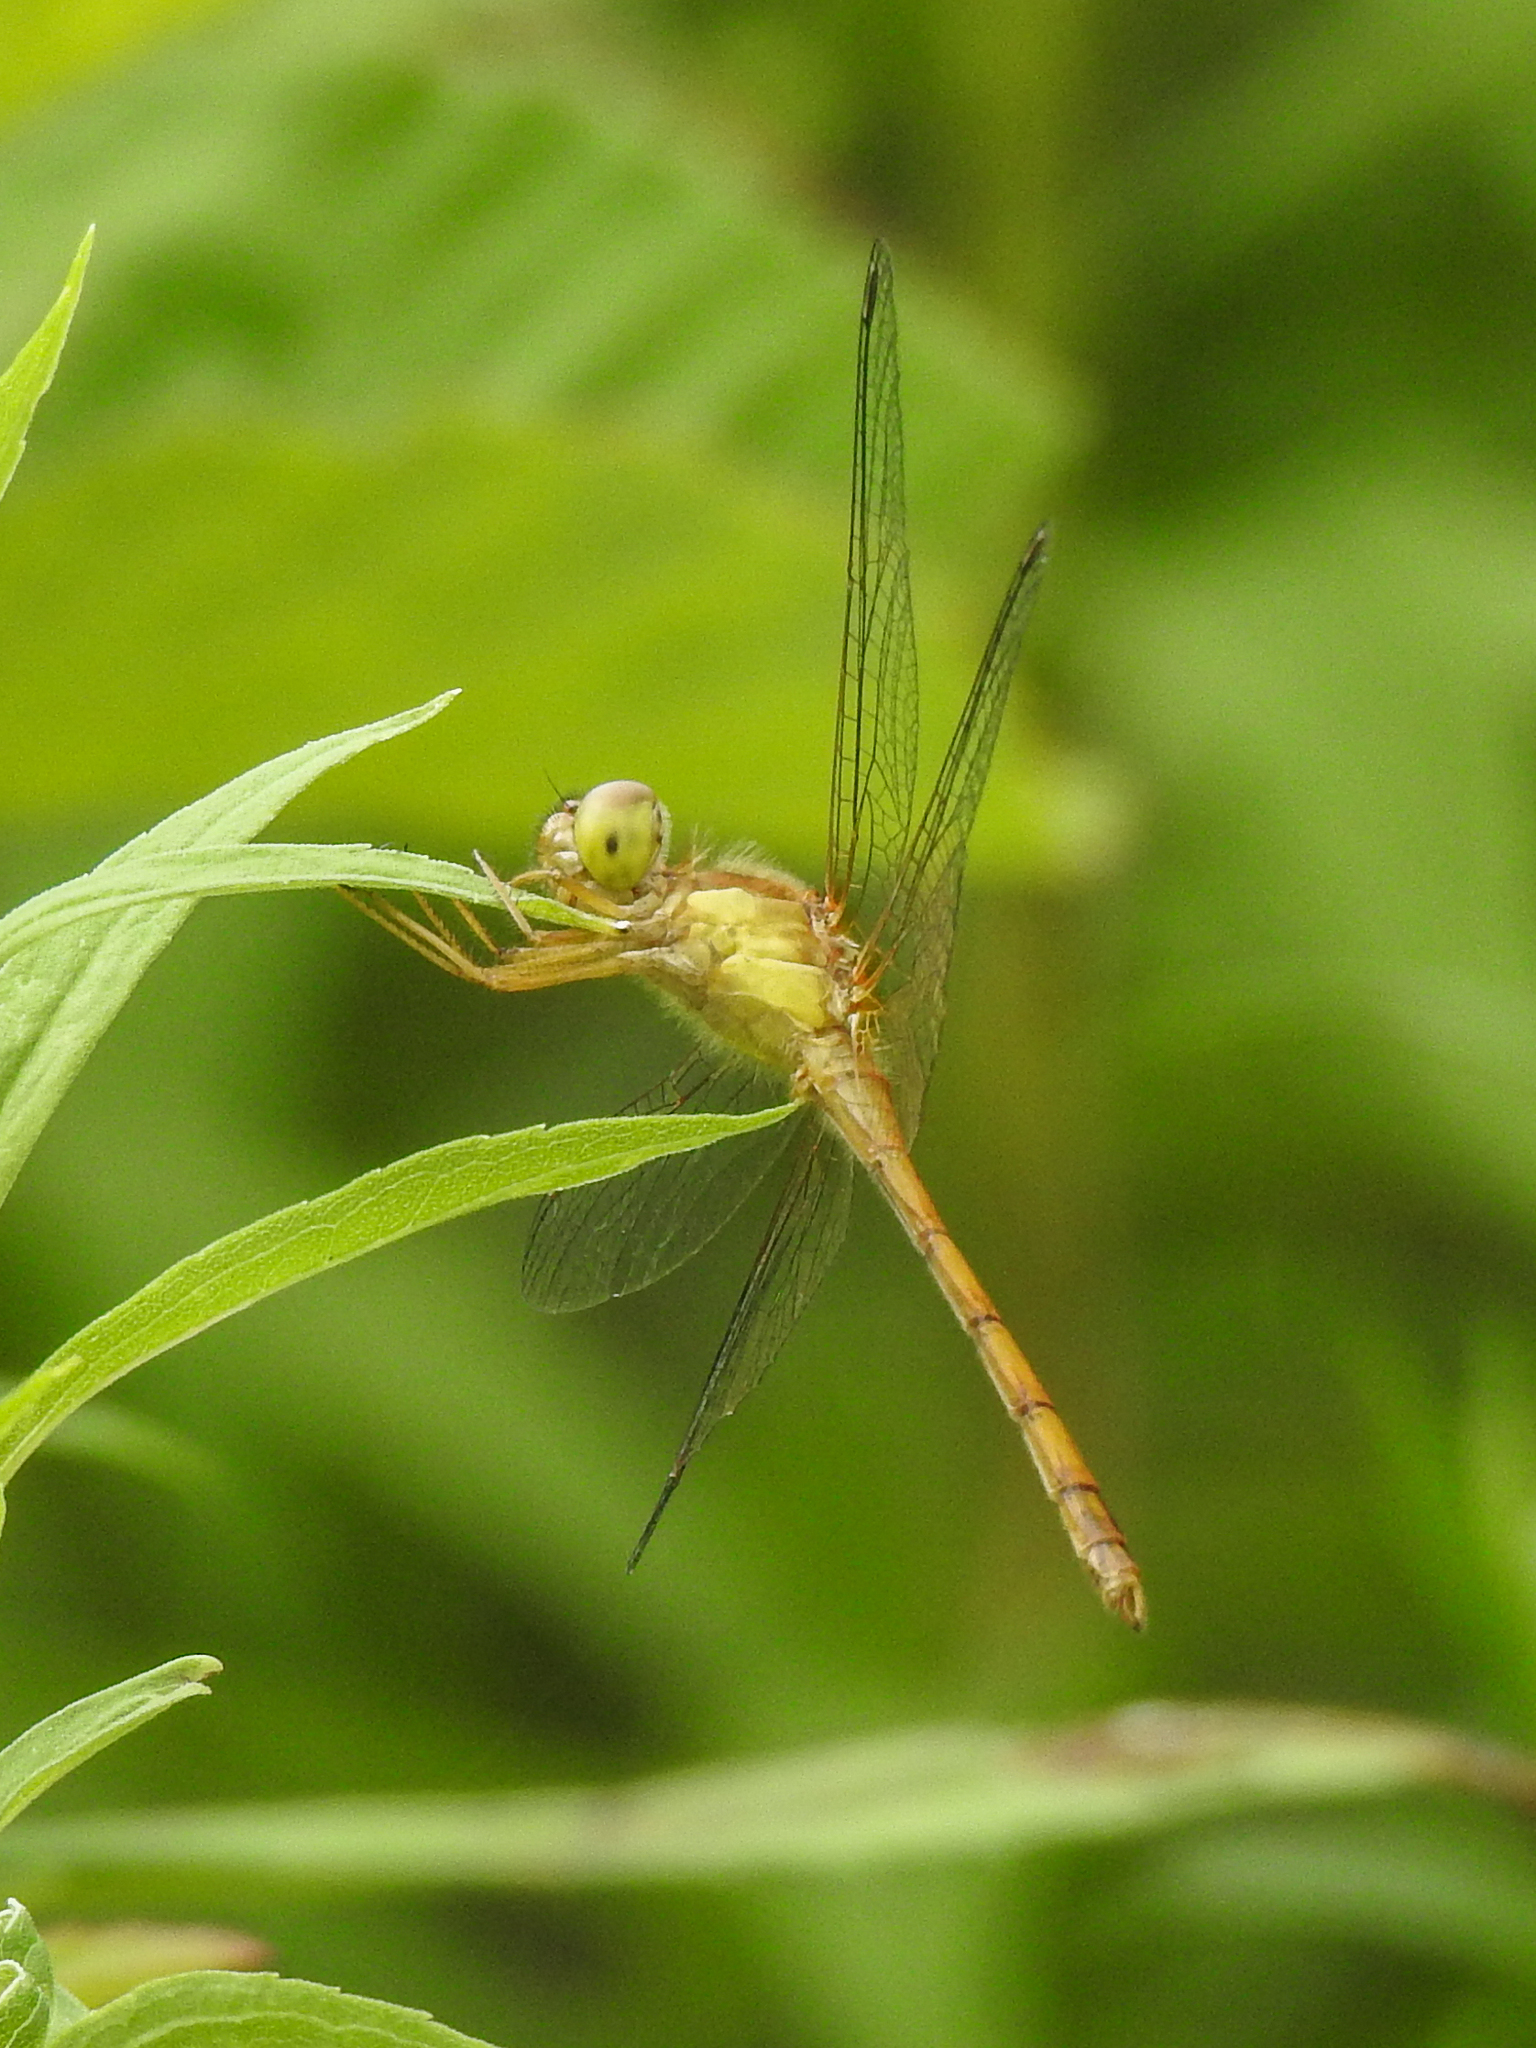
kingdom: Animalia
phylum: Arthropoda
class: Insecta
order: Odonata
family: Libellulidae
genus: Sympetrum
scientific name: Sympetrum vicinum
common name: Autumn meadowhawk
